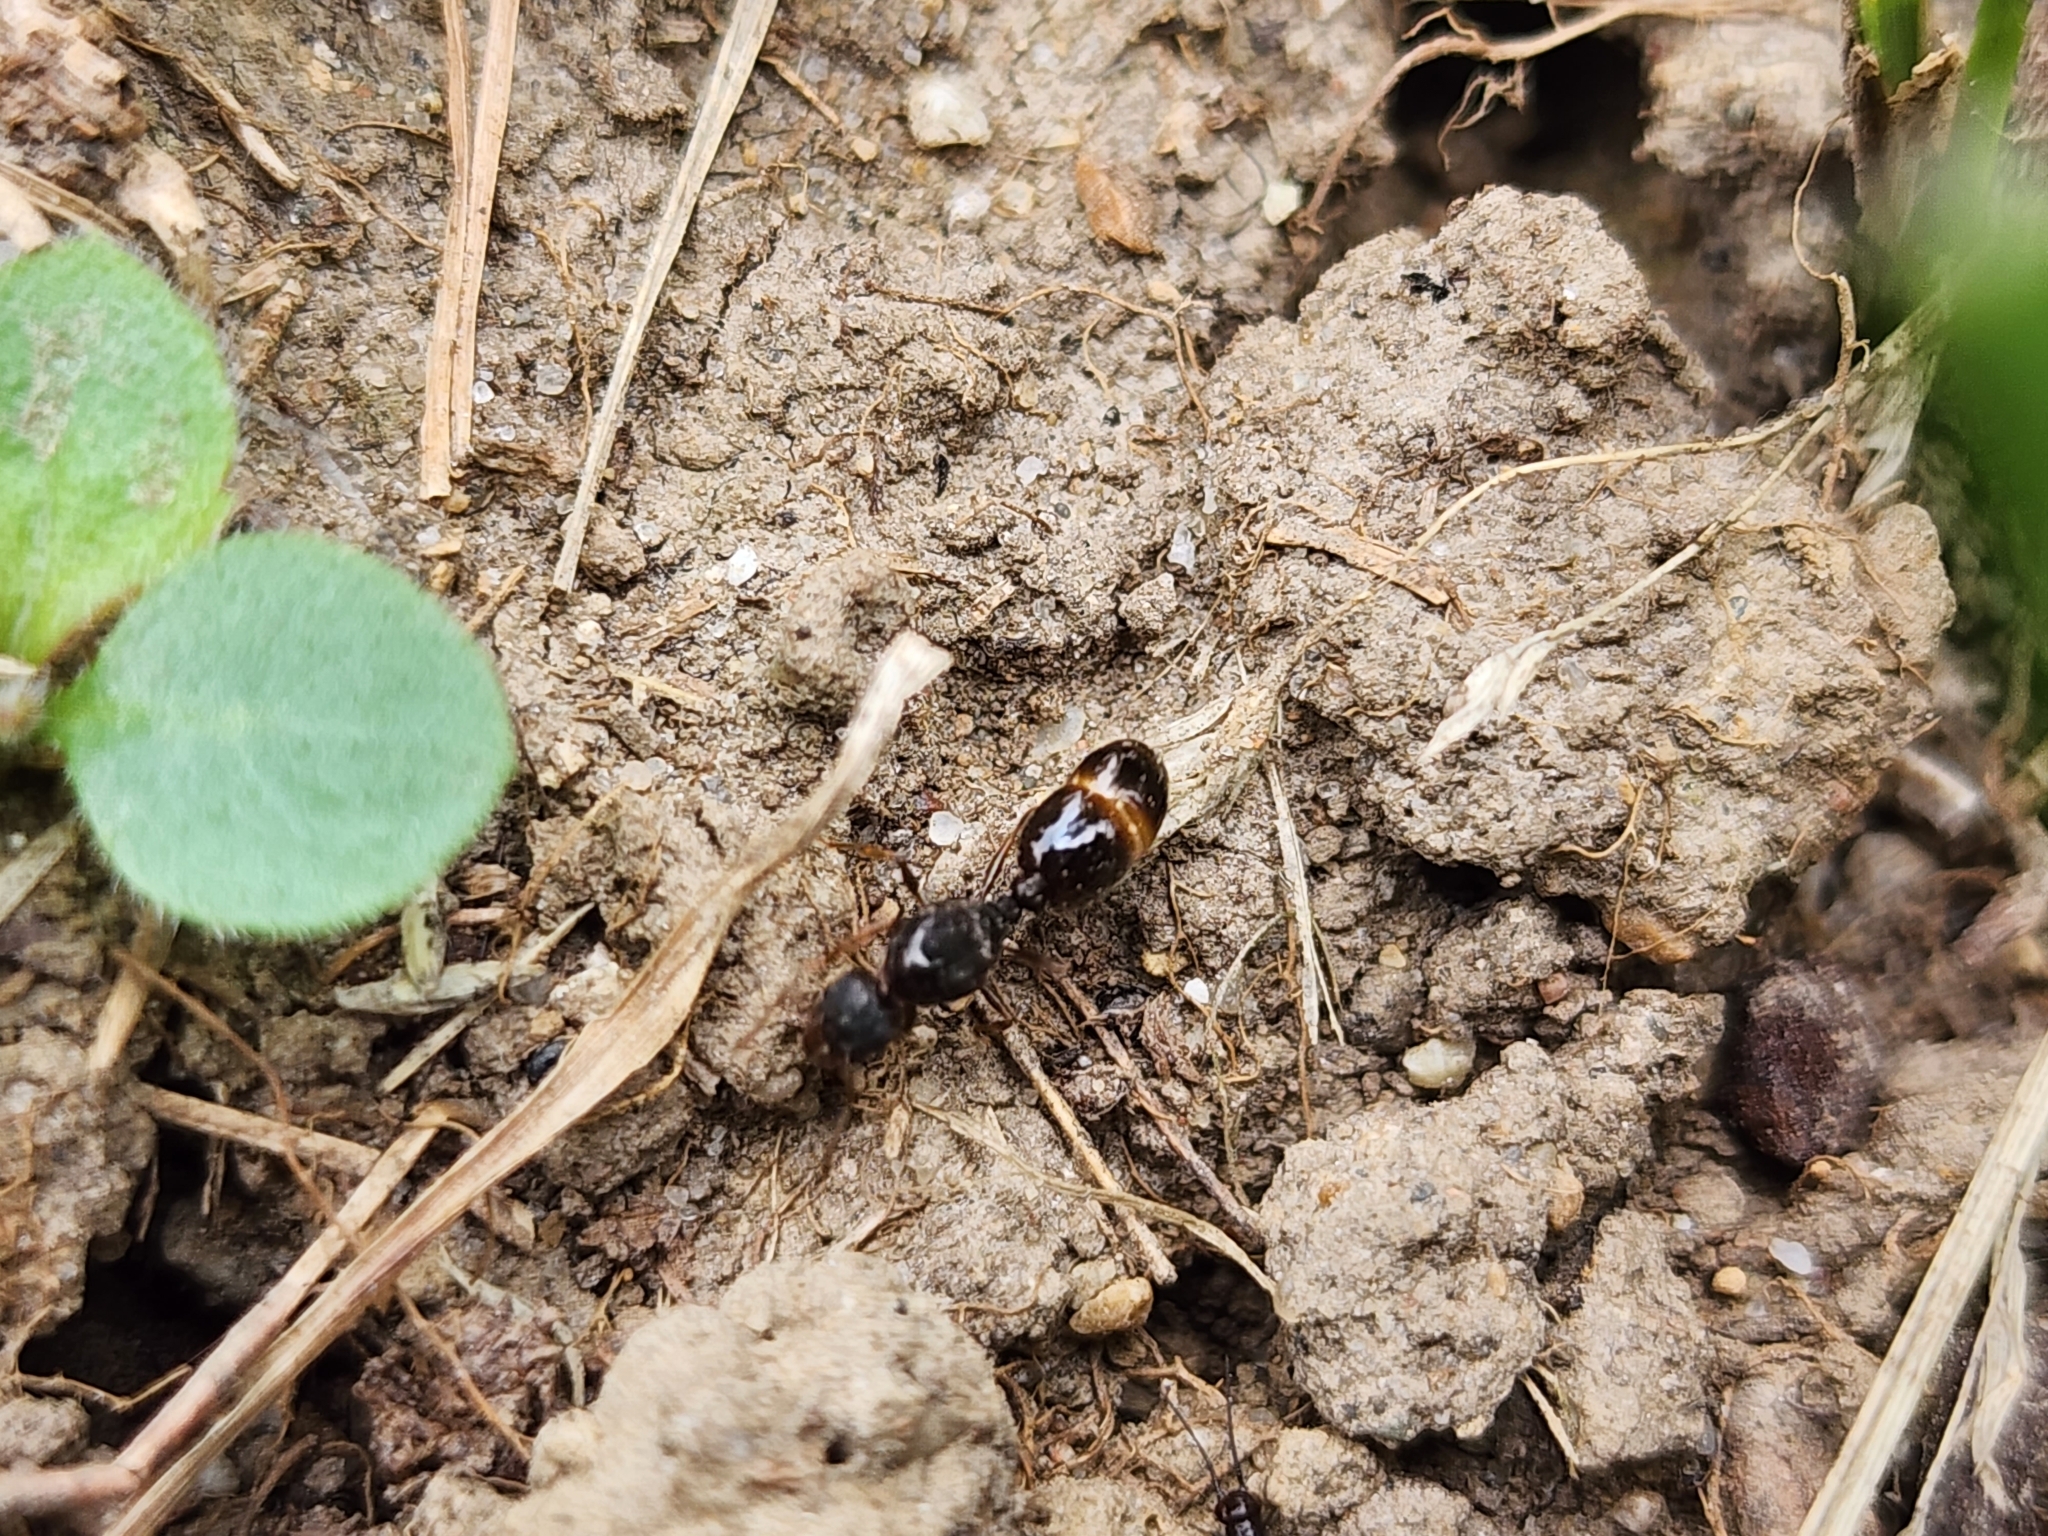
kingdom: Animalia
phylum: Arthropoda
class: Insecta
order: Hymenoptera
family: Formicidae
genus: Tetramorium
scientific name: Tetramorium immigrans
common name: Pavement ant
